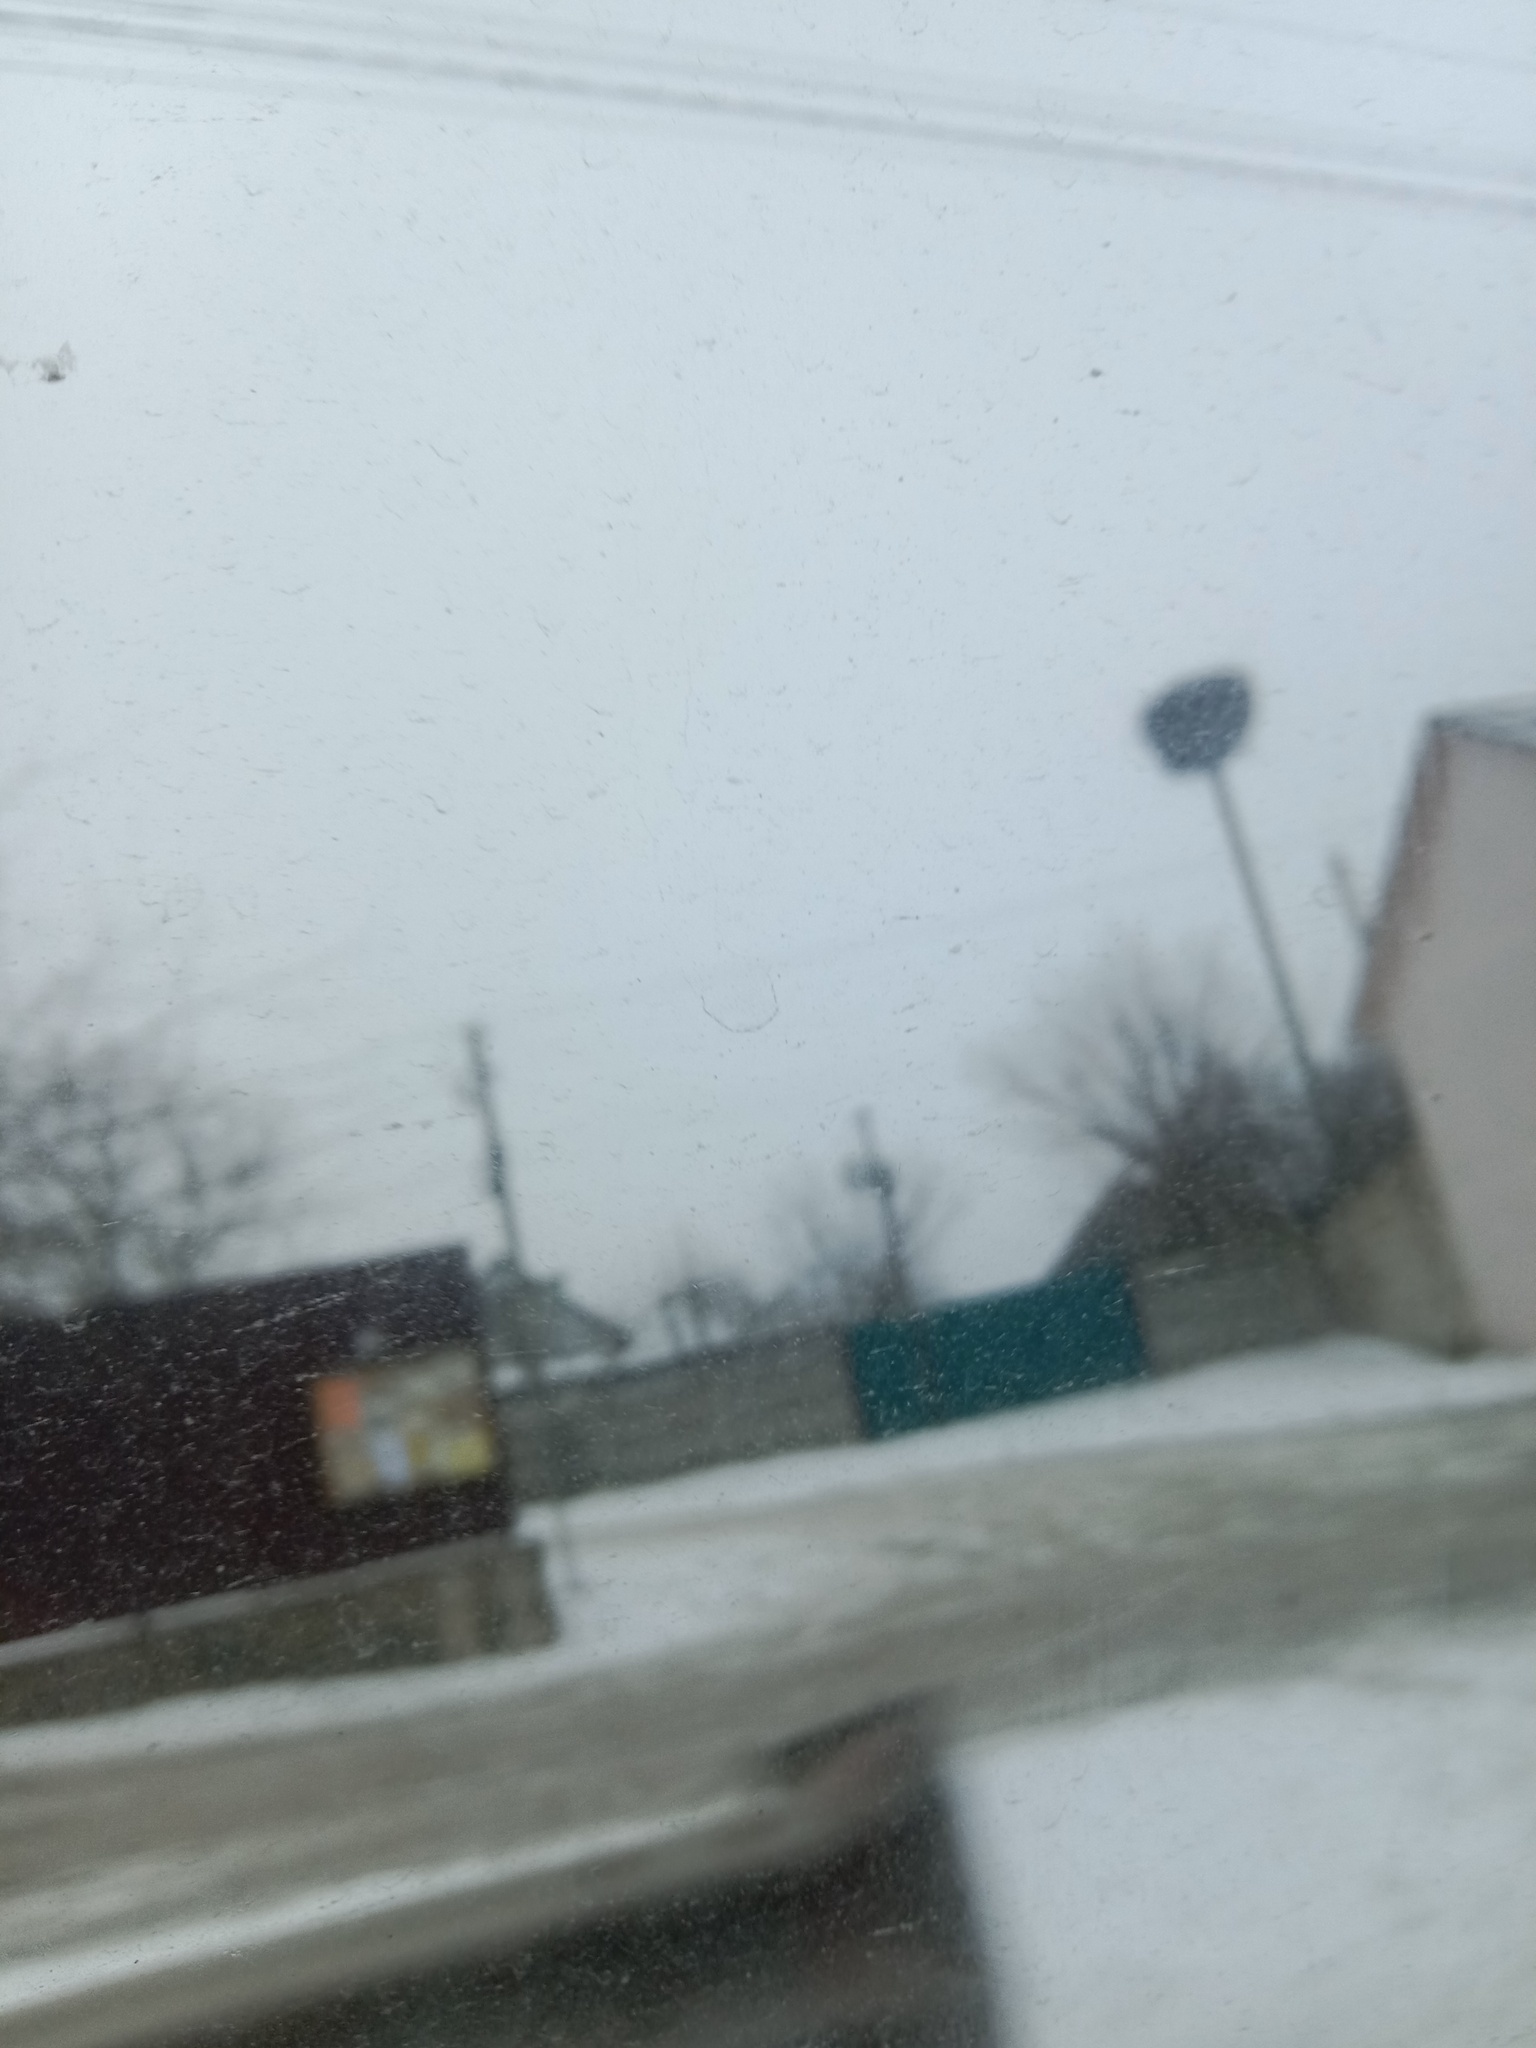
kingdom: Animalia
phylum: Chordata
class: Aves
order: Ciconiiformes
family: Ciconiidae
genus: Ciconia
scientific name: Ciconia ciconia
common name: White stork
